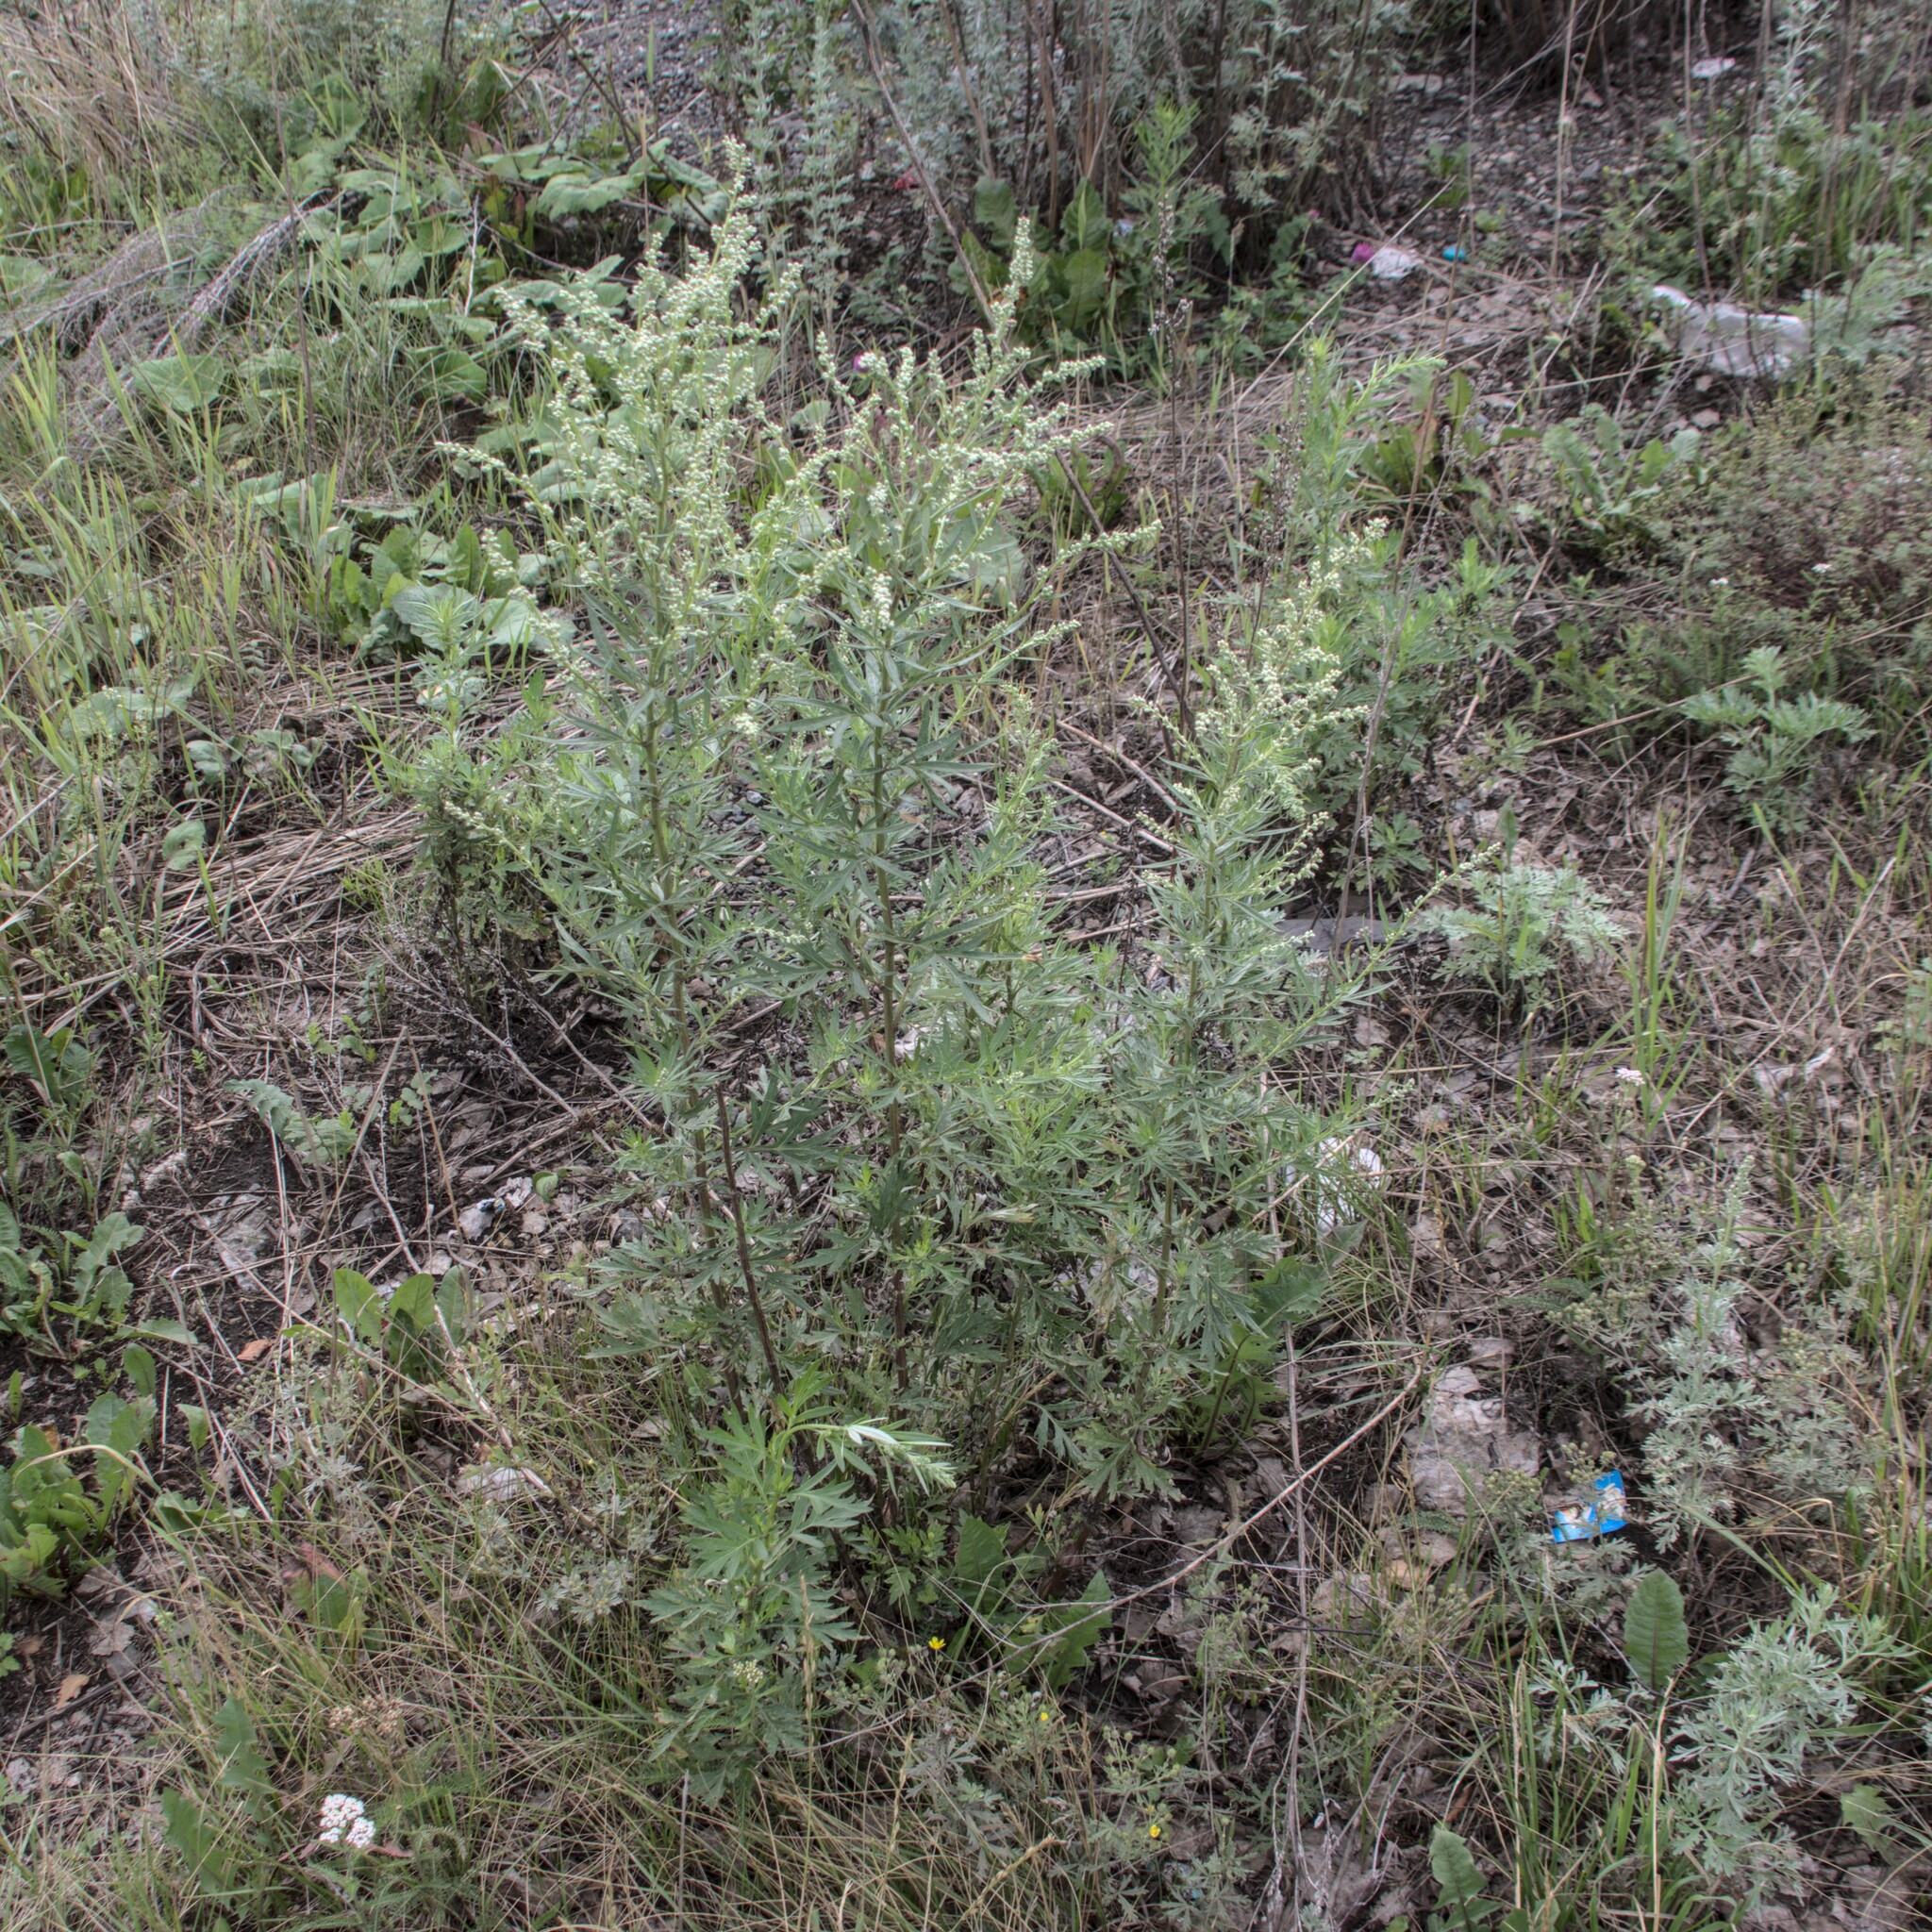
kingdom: Plantae
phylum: Tracheophyta
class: Magnoliopsida
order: Asterales
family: Asteraceae
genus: Artemisia
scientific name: Artemisia vulgaris
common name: Mugwort
